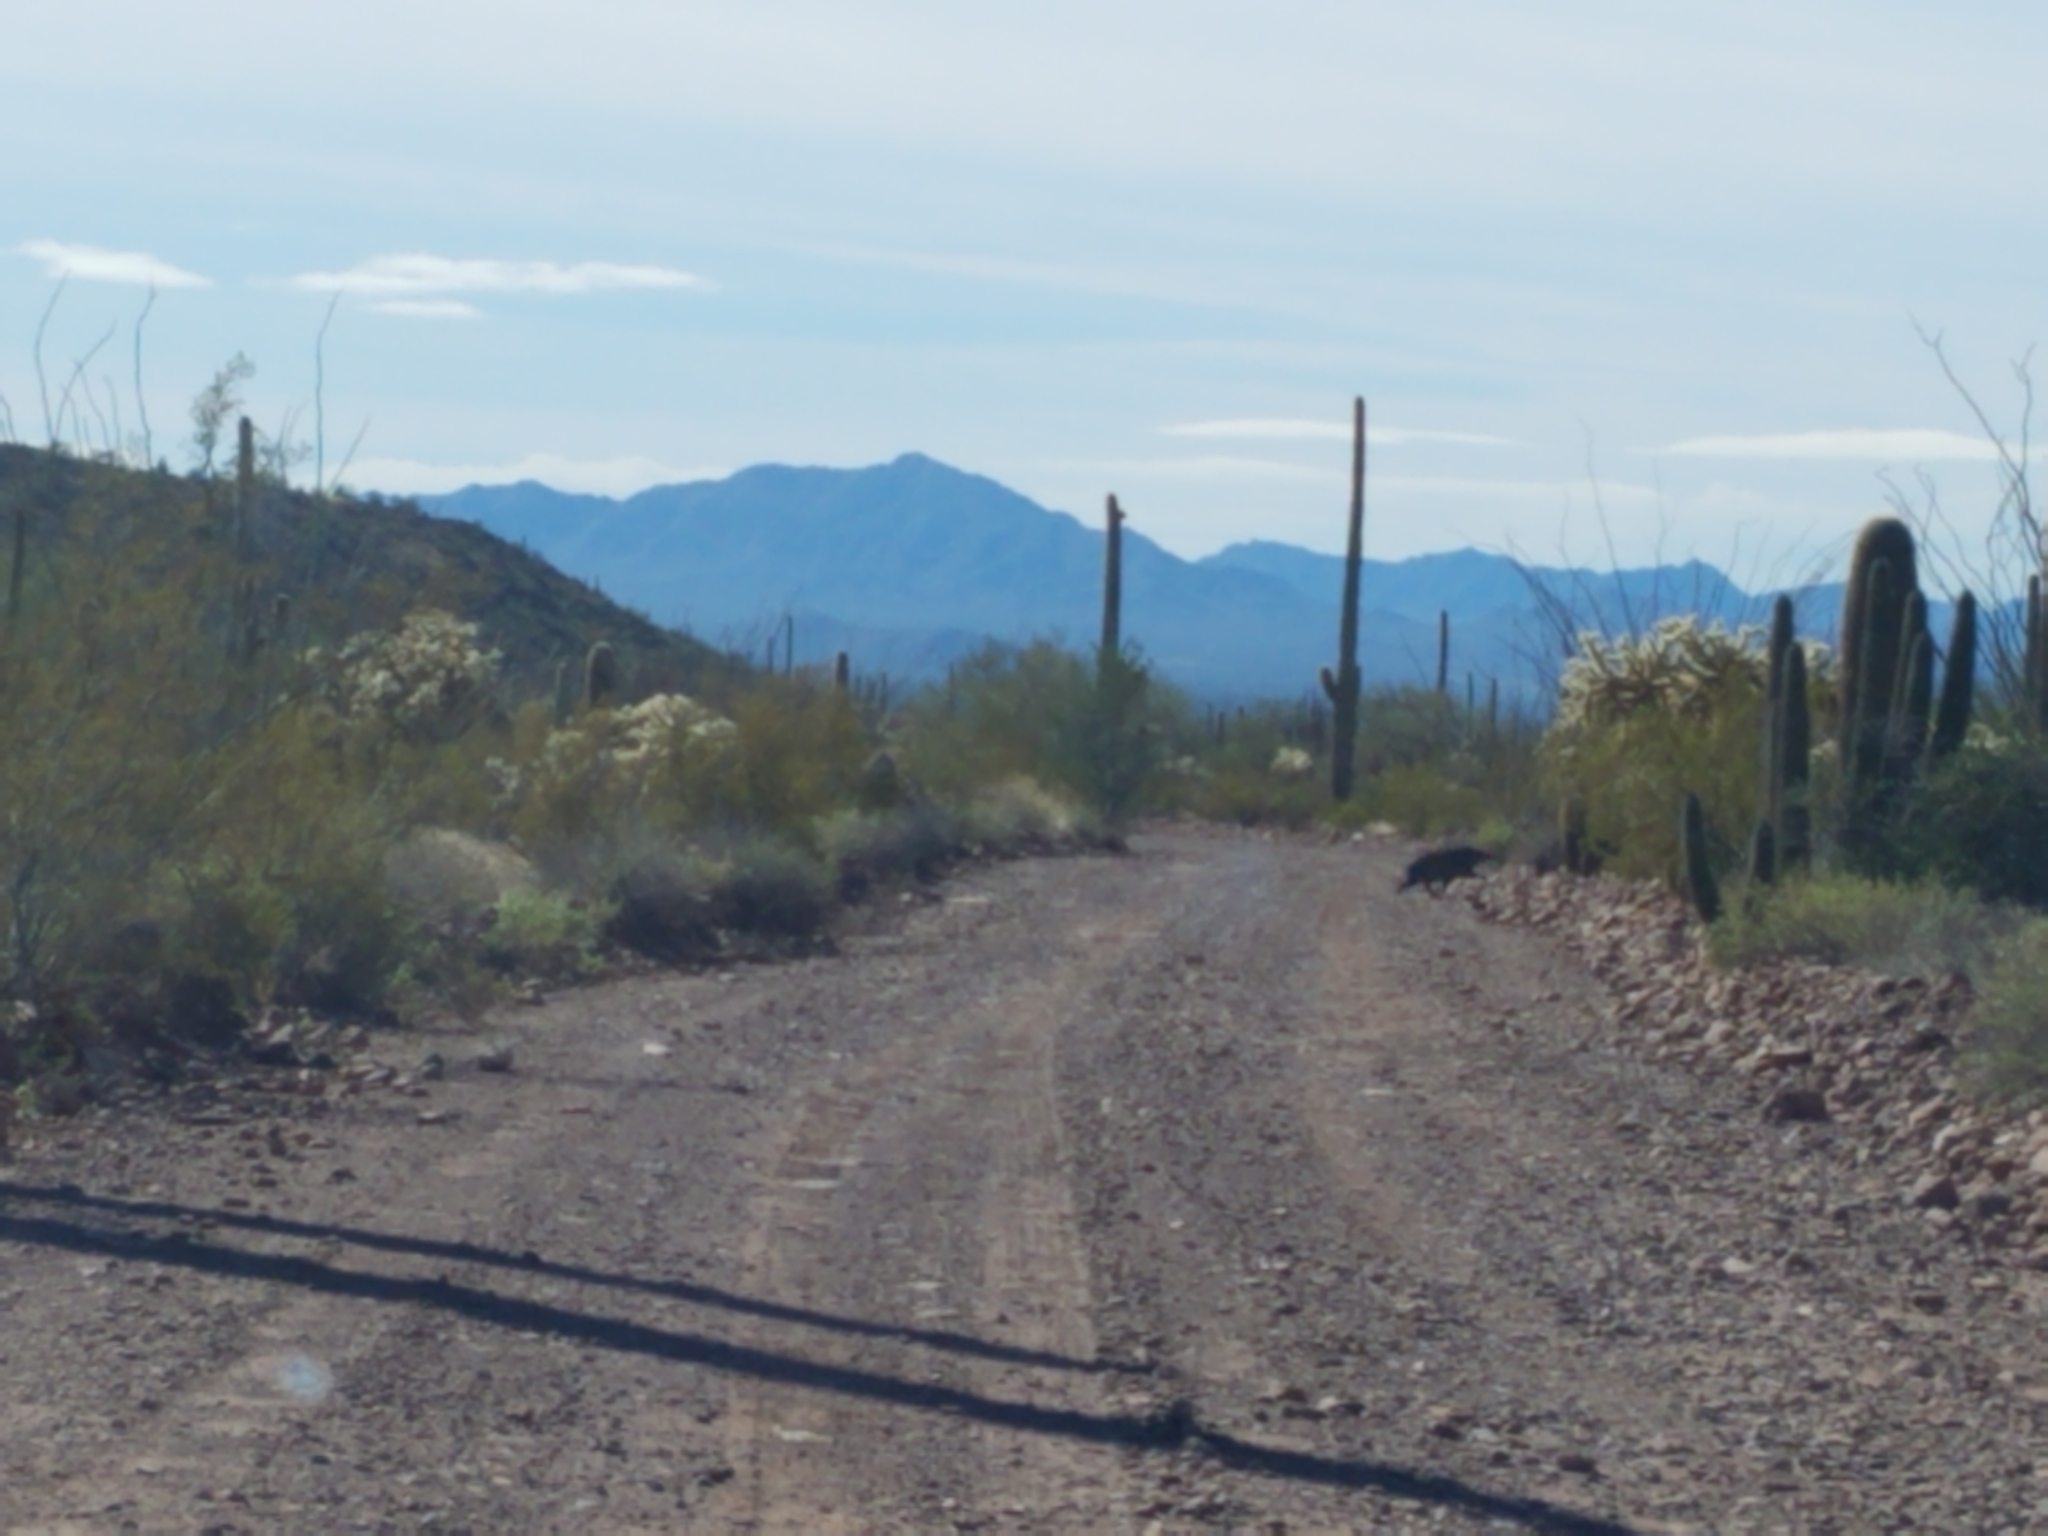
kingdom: Animalia
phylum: Chordata
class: Mammalia
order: Artiodactyla
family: Tayassuidae
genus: Pecari
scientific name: Pecari tajacu
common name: Collared peccary
